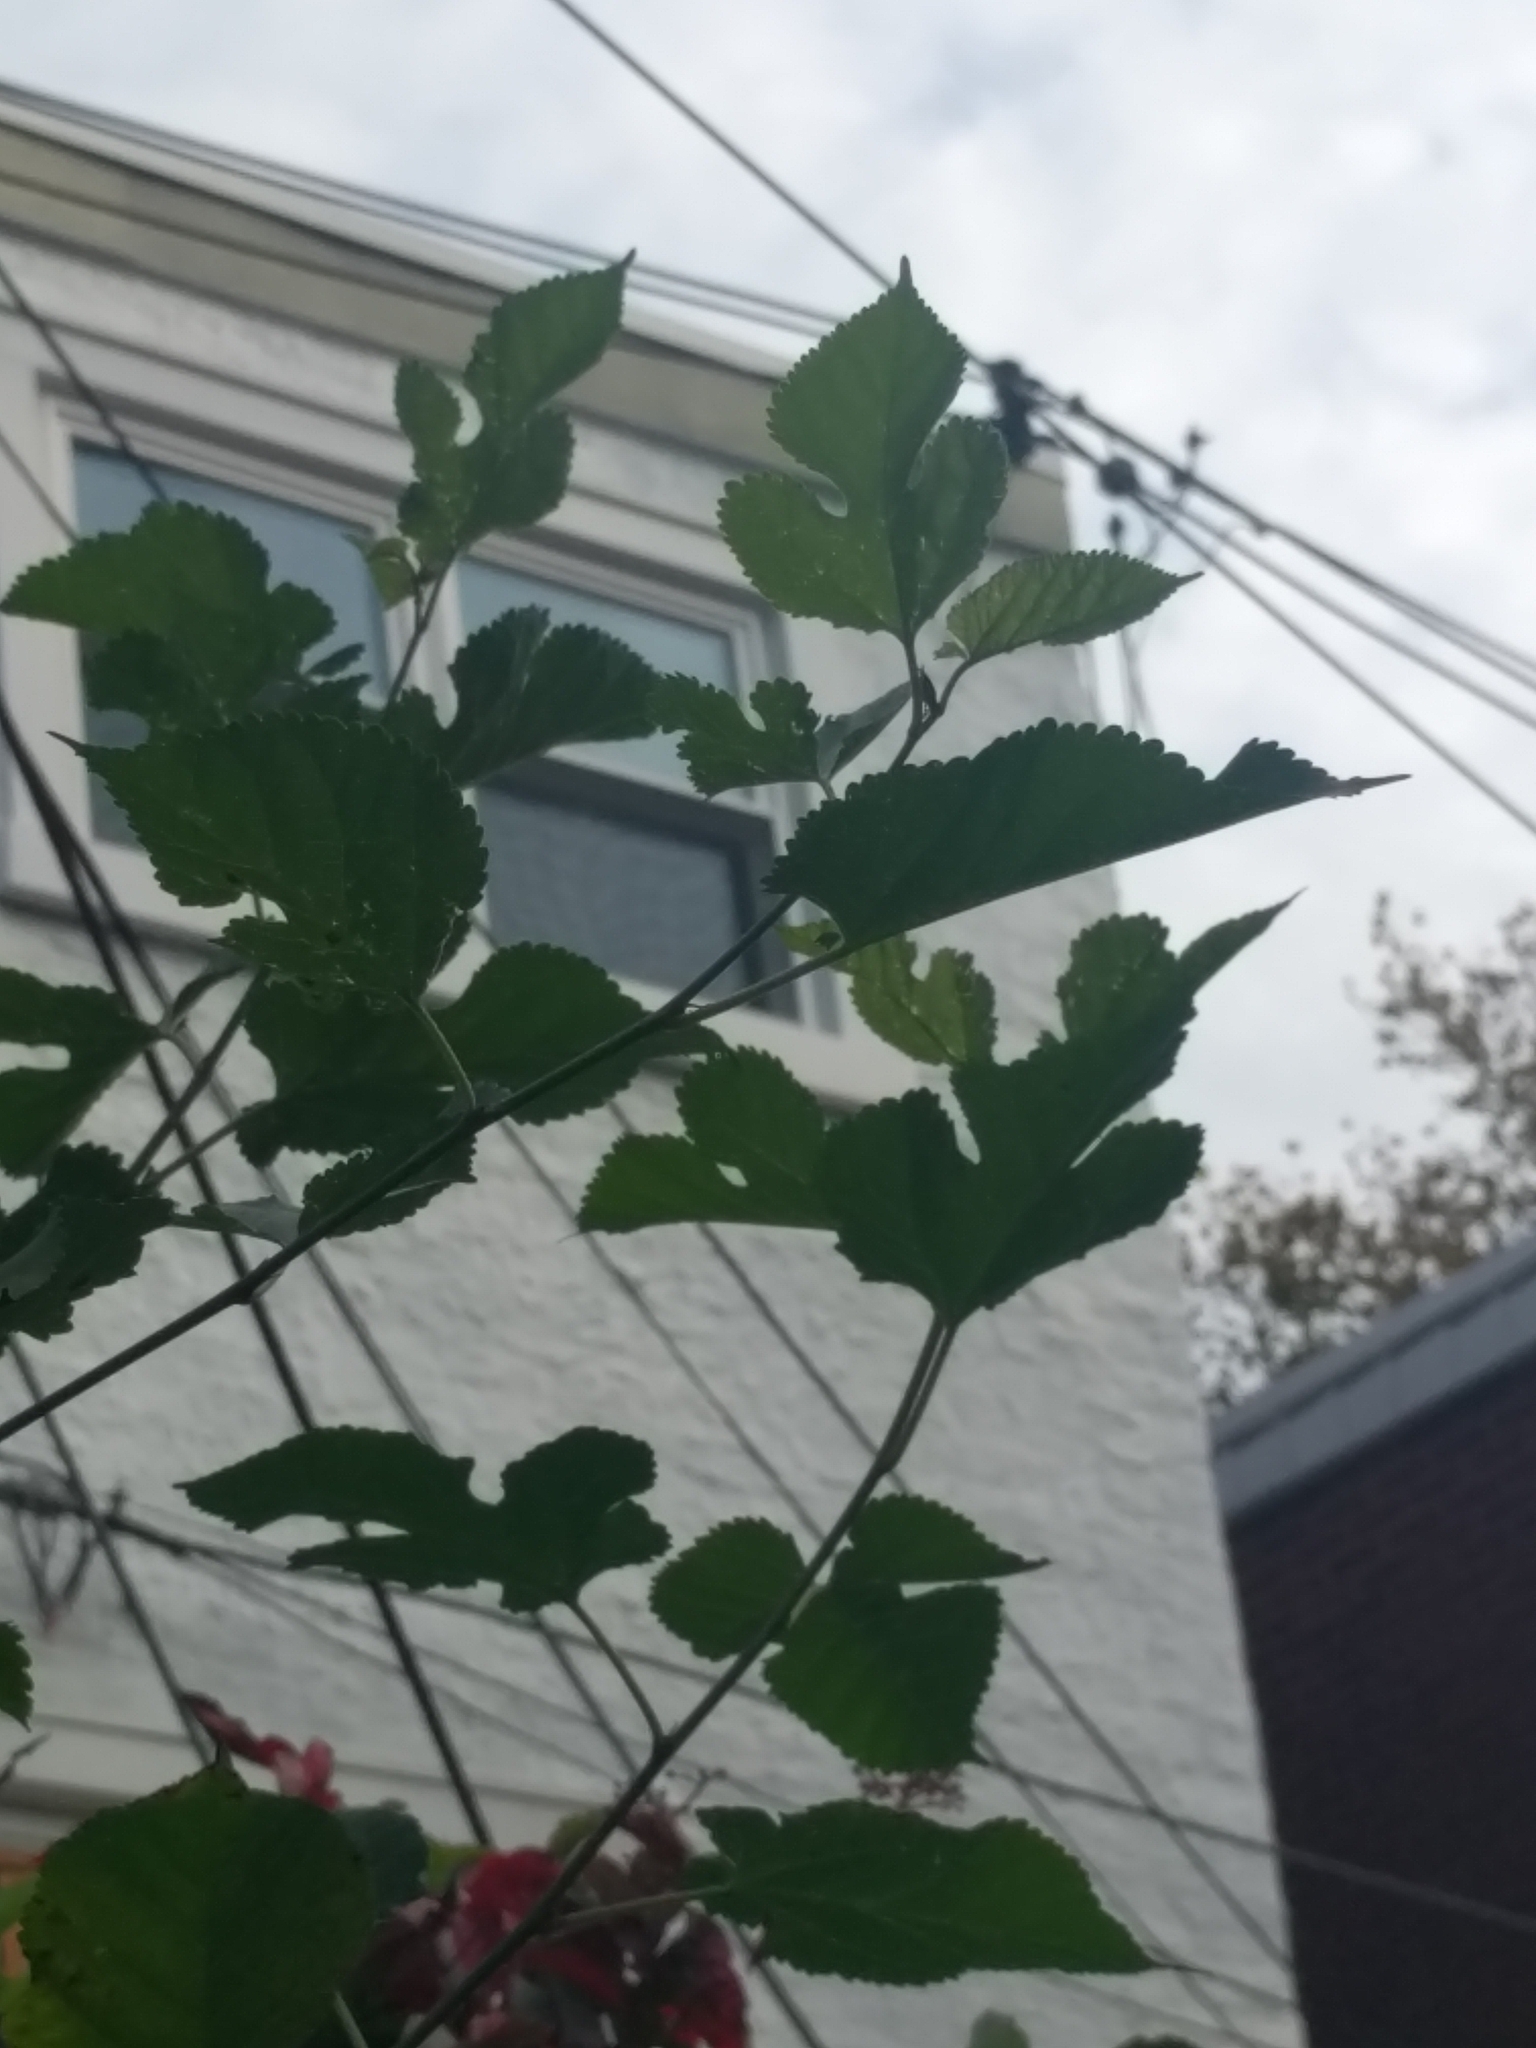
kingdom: Plantae
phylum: Tracheophyta
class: Magnoliopsida
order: Rosales
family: Moraceae
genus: Morus
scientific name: Morus alba
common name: White mulberry
